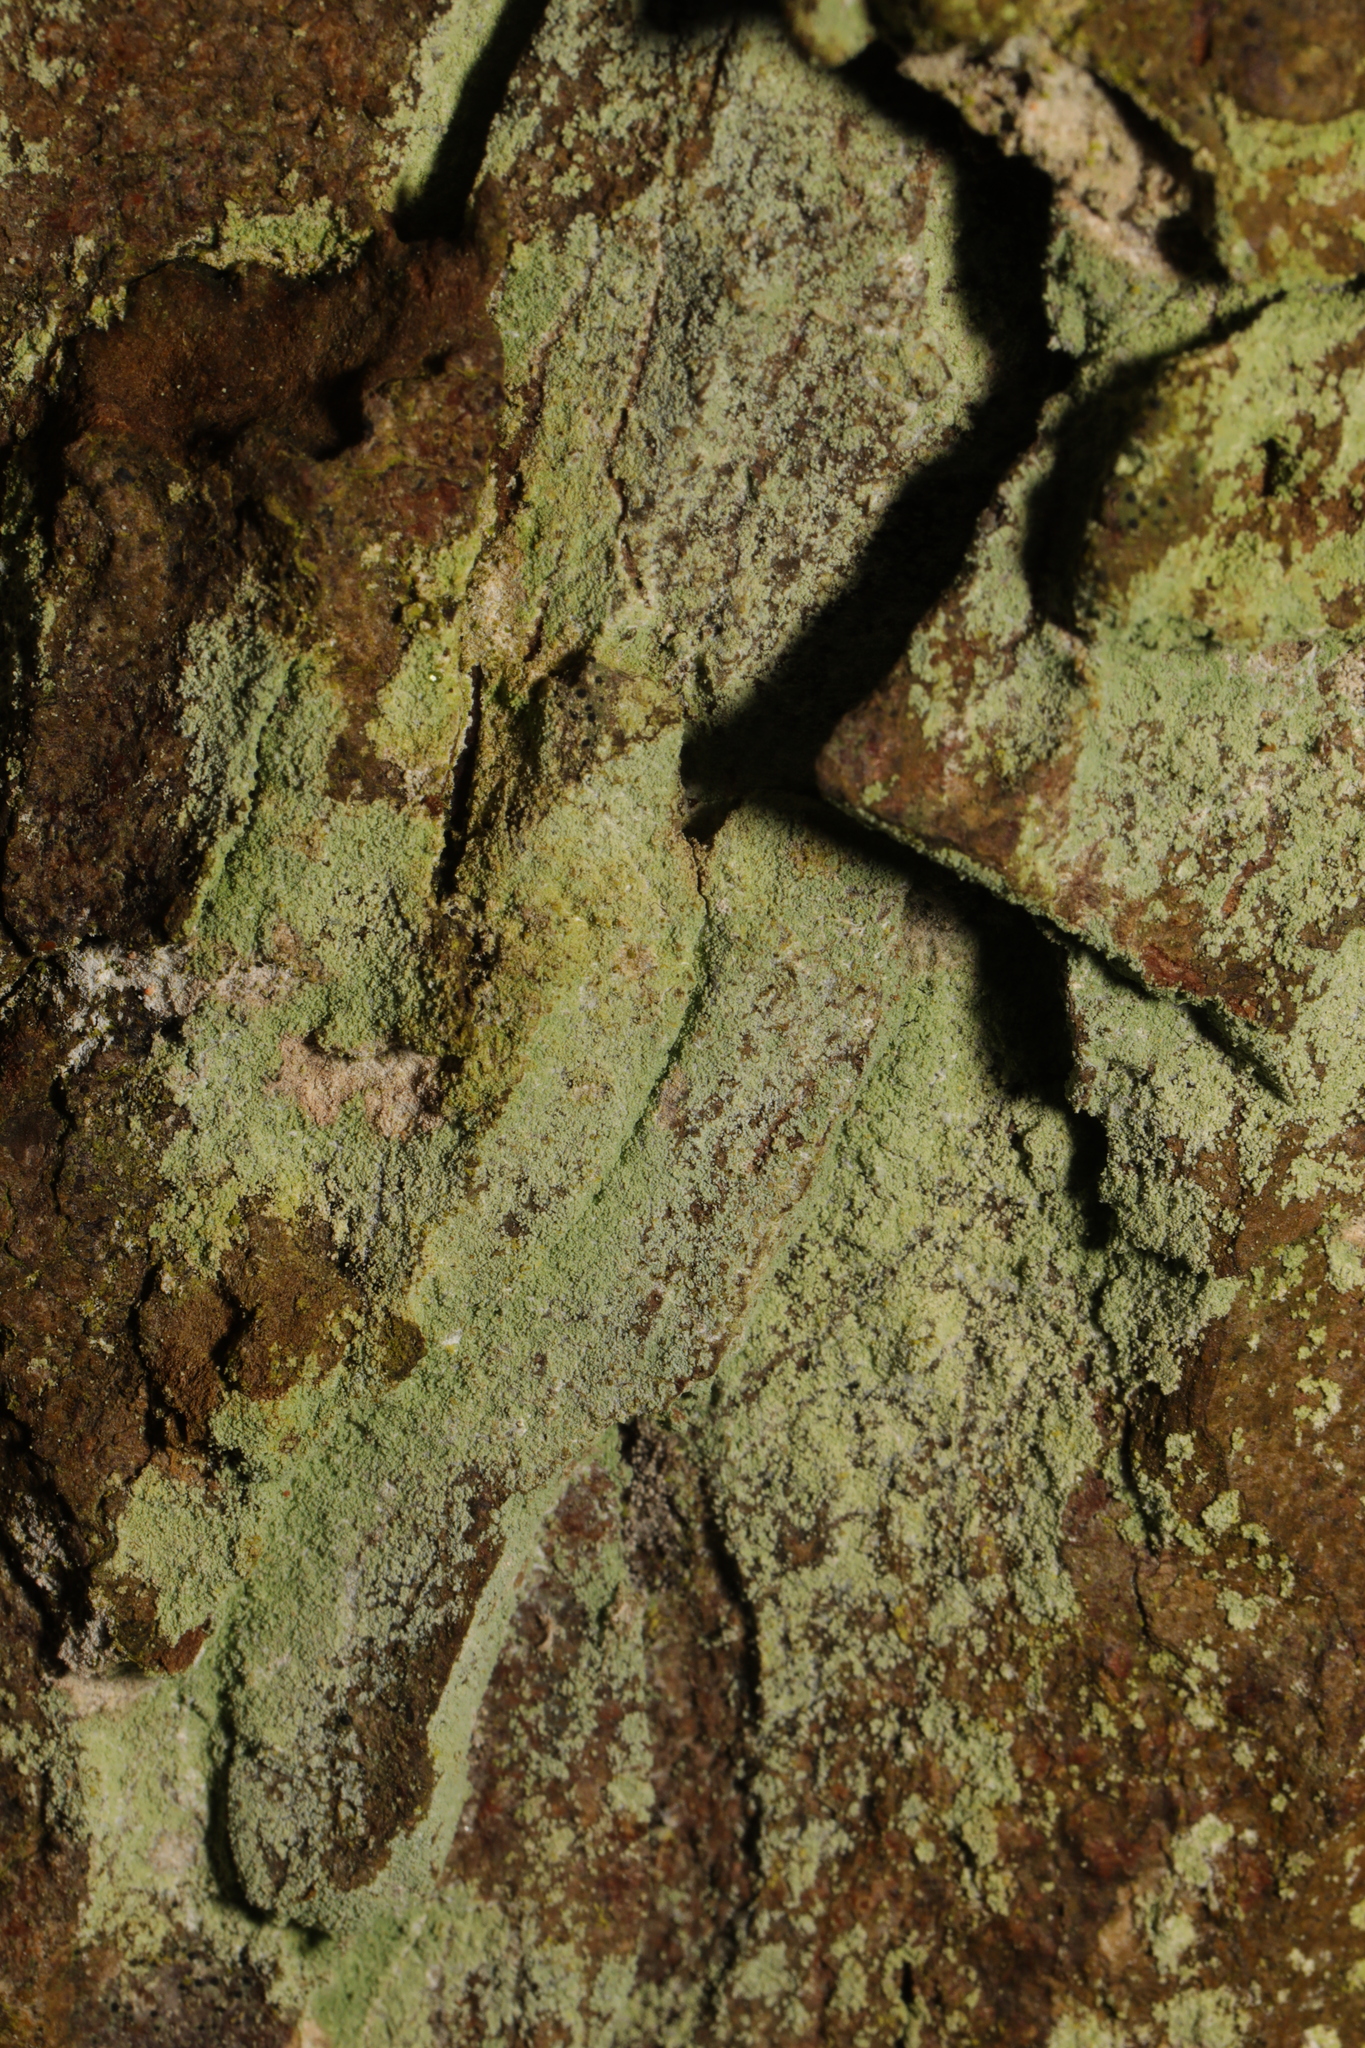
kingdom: Fungi
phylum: Ascomycota
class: Lecanoromycetes
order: Lecanorales
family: Stereocaulaceae
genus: Lepraria
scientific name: Lepraria
